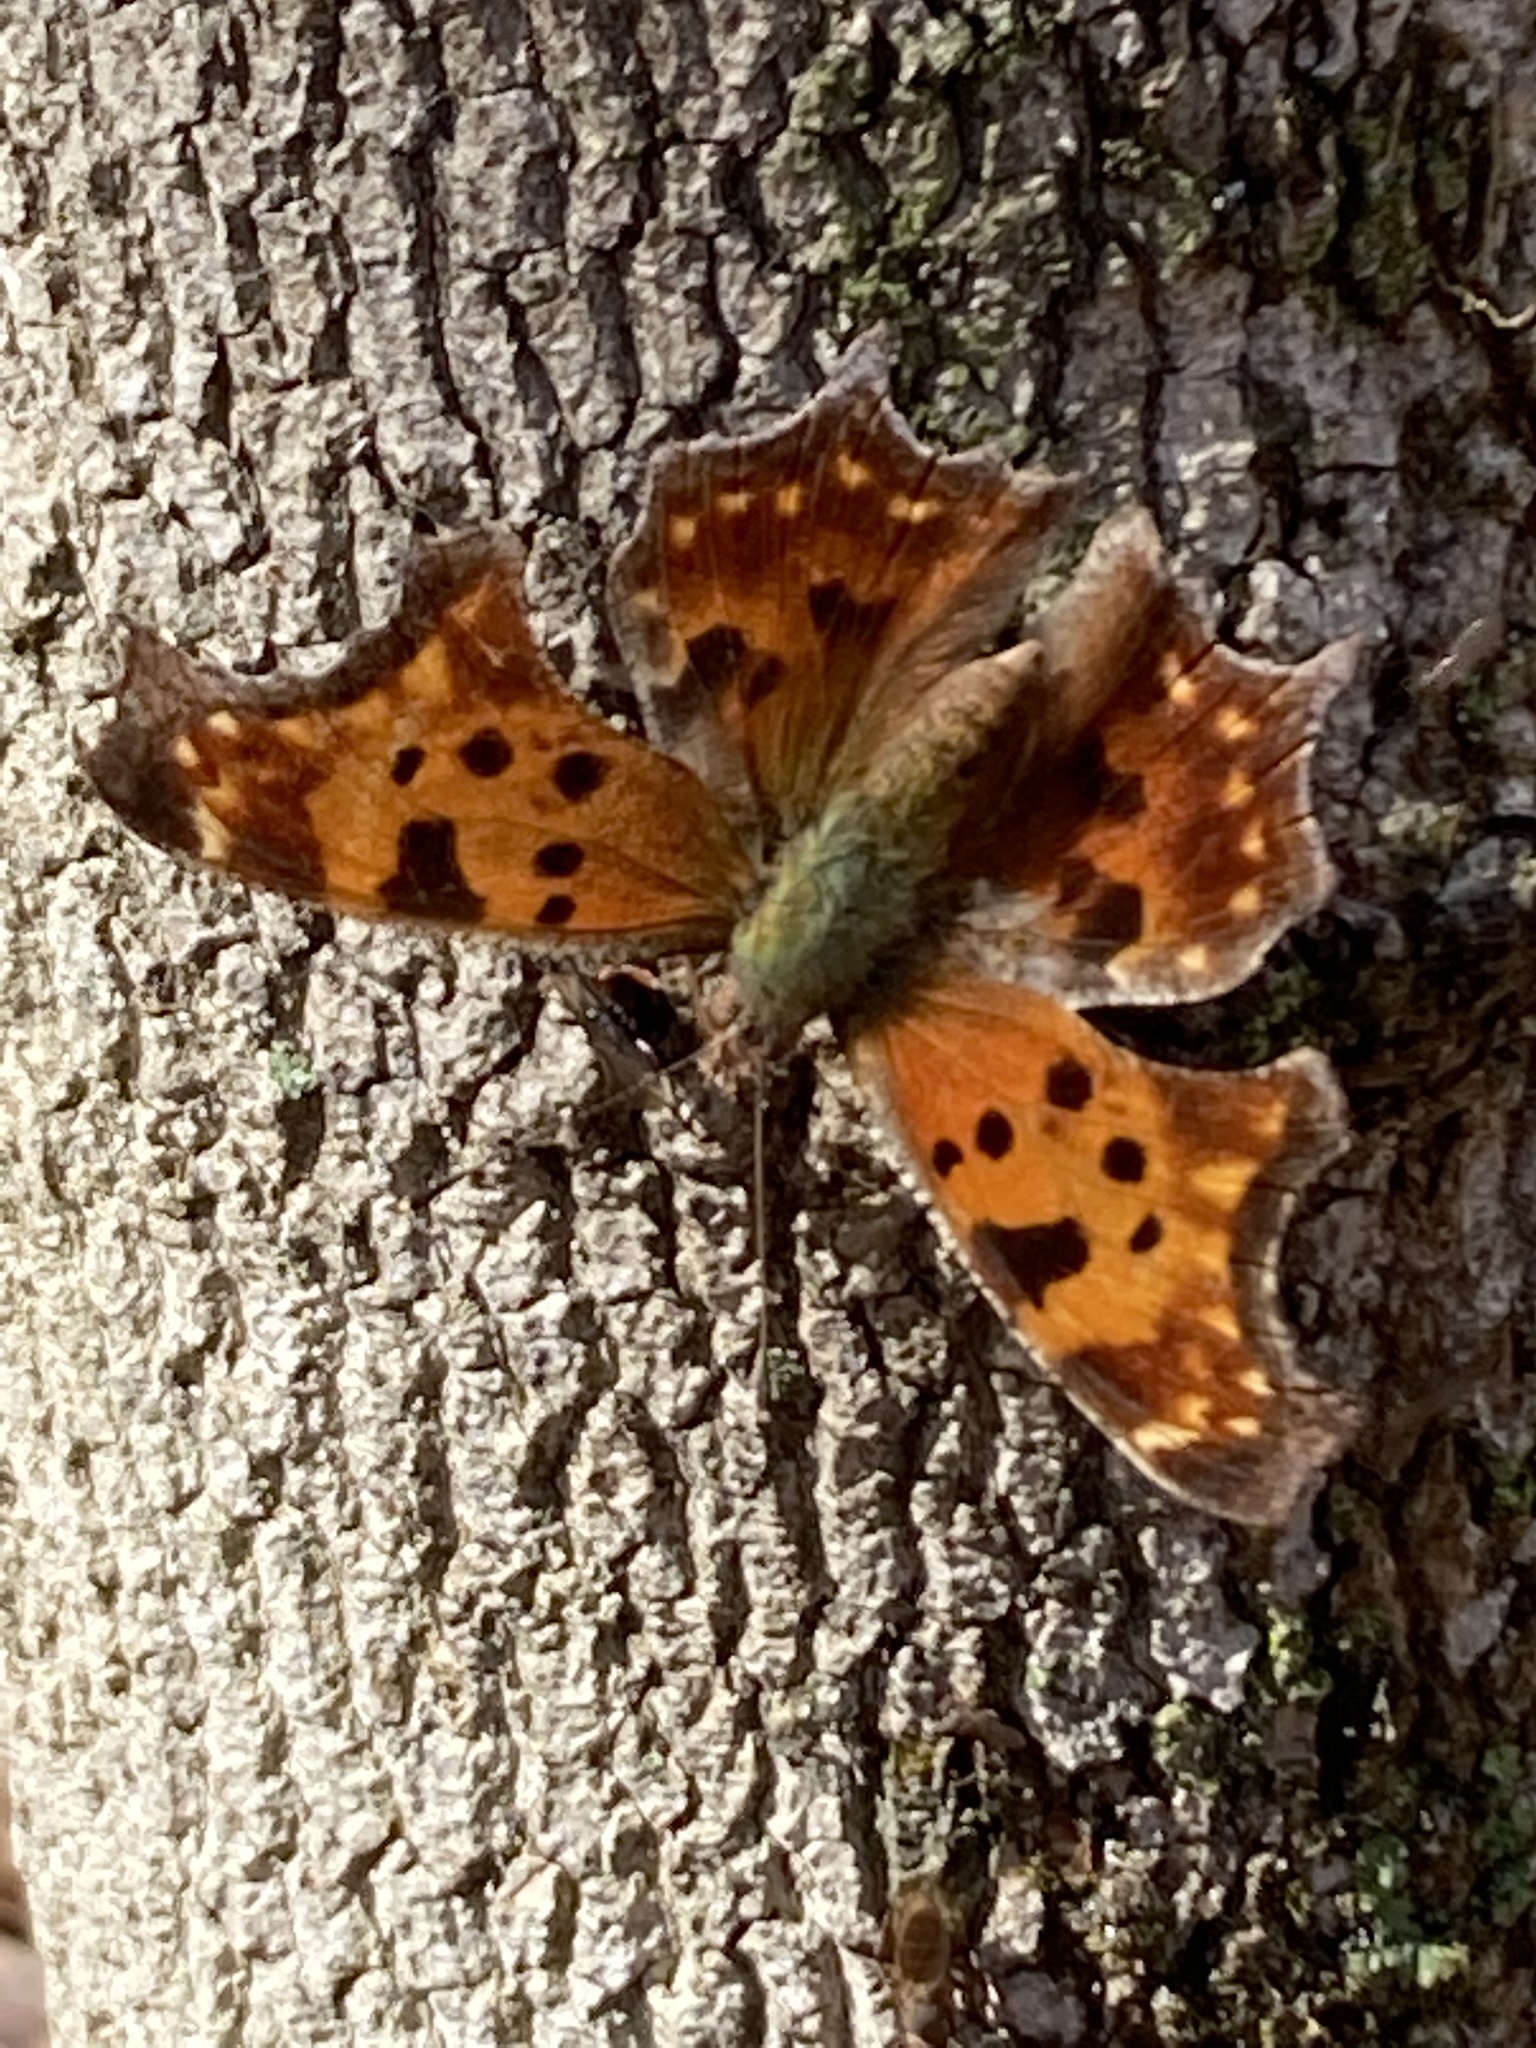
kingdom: Animalia
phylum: Arthropoda
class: Insecta
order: Lepidoptera
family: Nymphalidae
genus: Polygonia
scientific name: Polygonia comma
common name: Eastern comma
